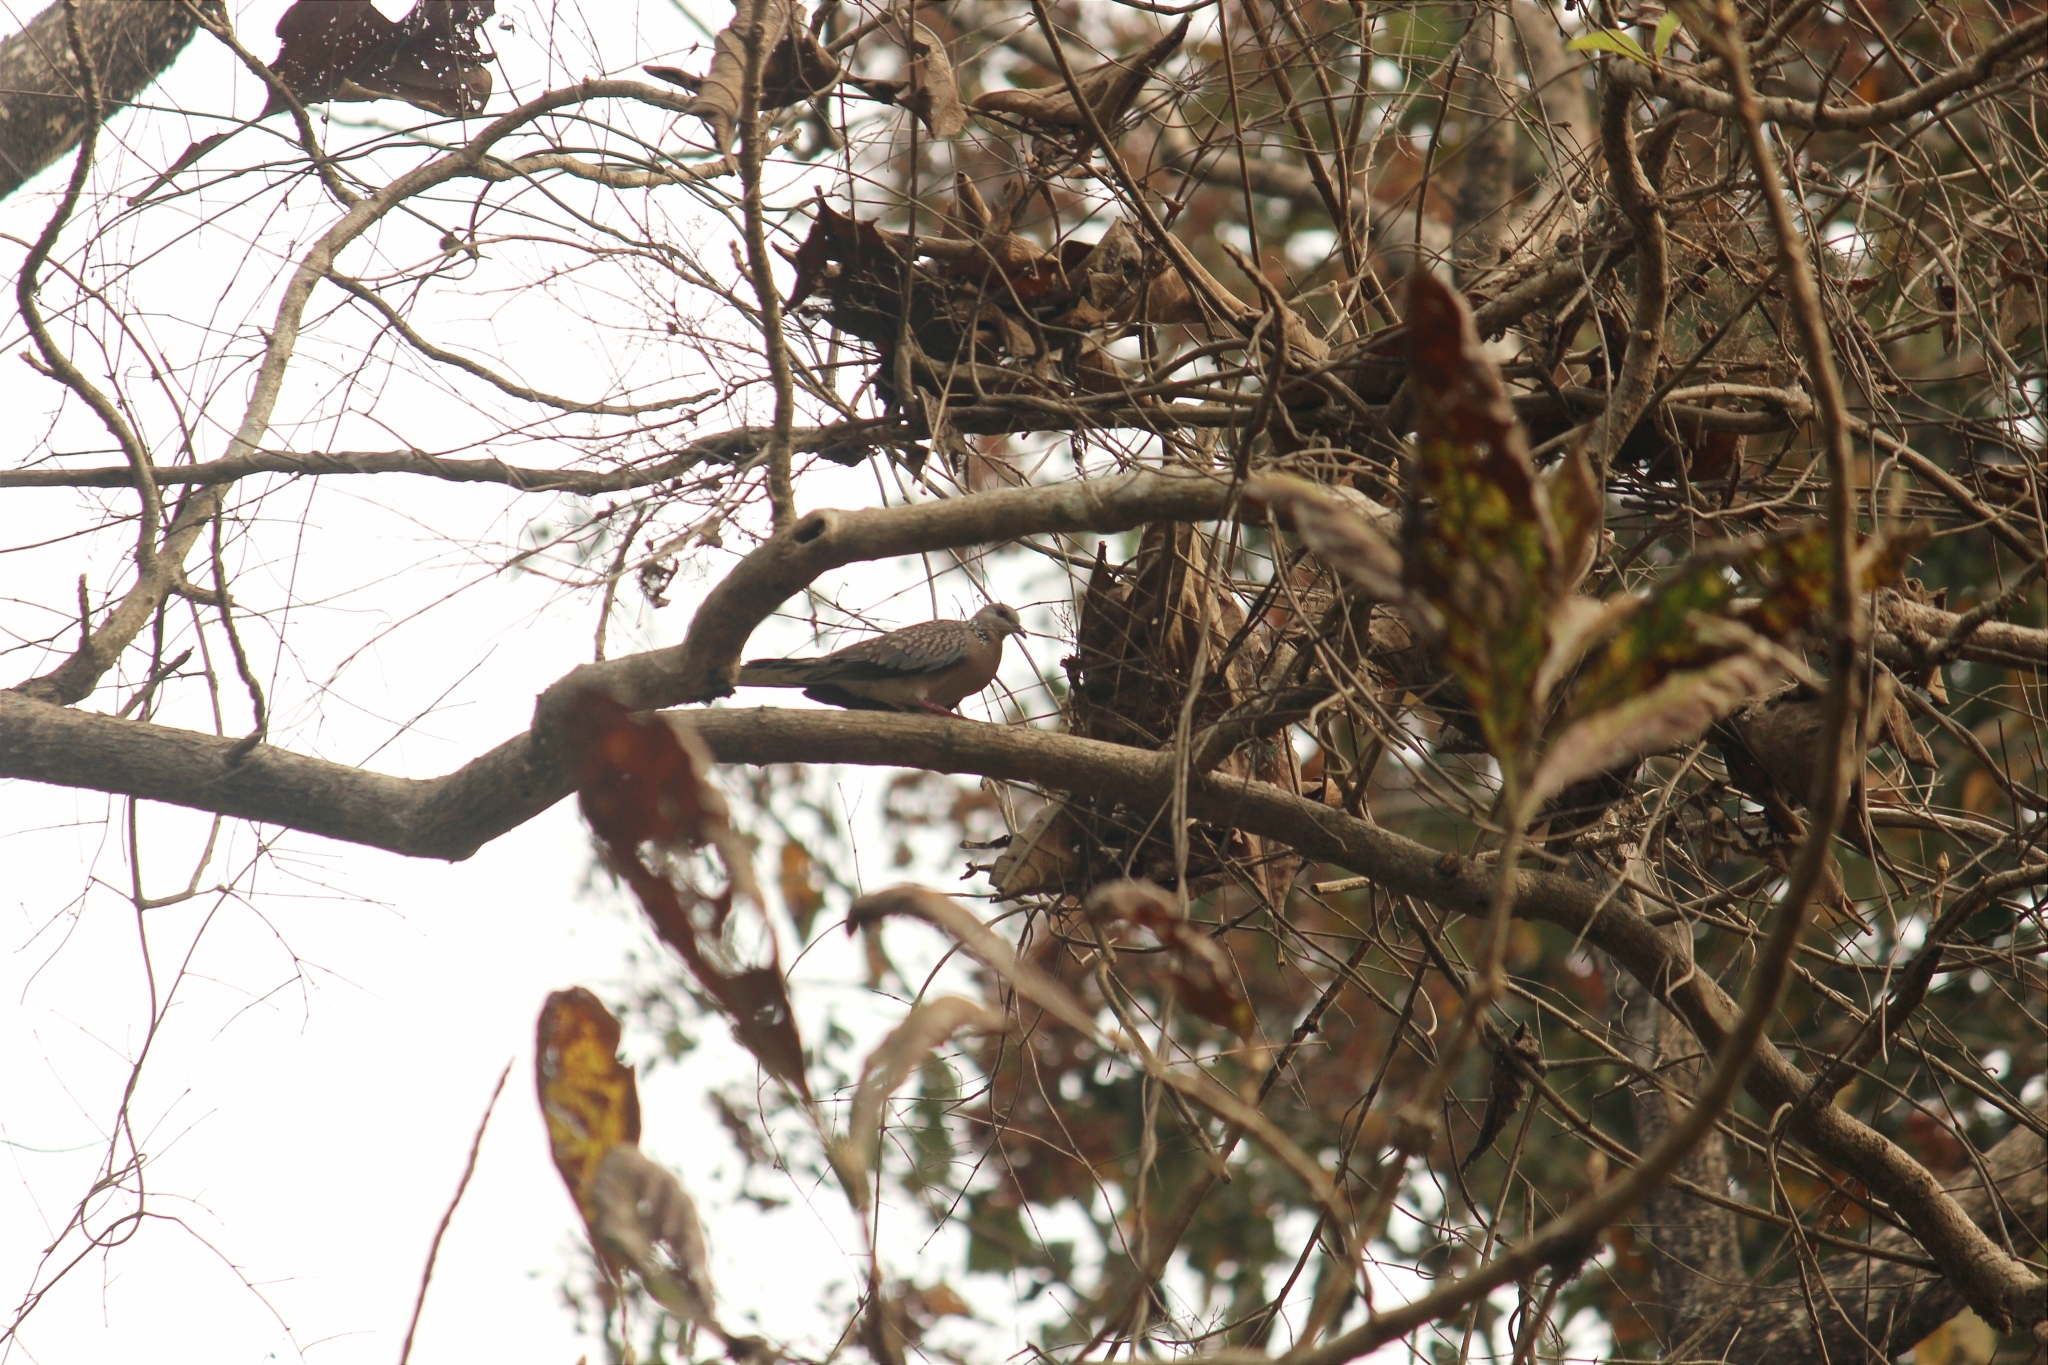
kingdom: Animalia
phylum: Chordata
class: Aves
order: Columbiformes
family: Columbidae
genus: Spilopelia
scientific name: Spilopelia chinensis
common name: Spotted dove
